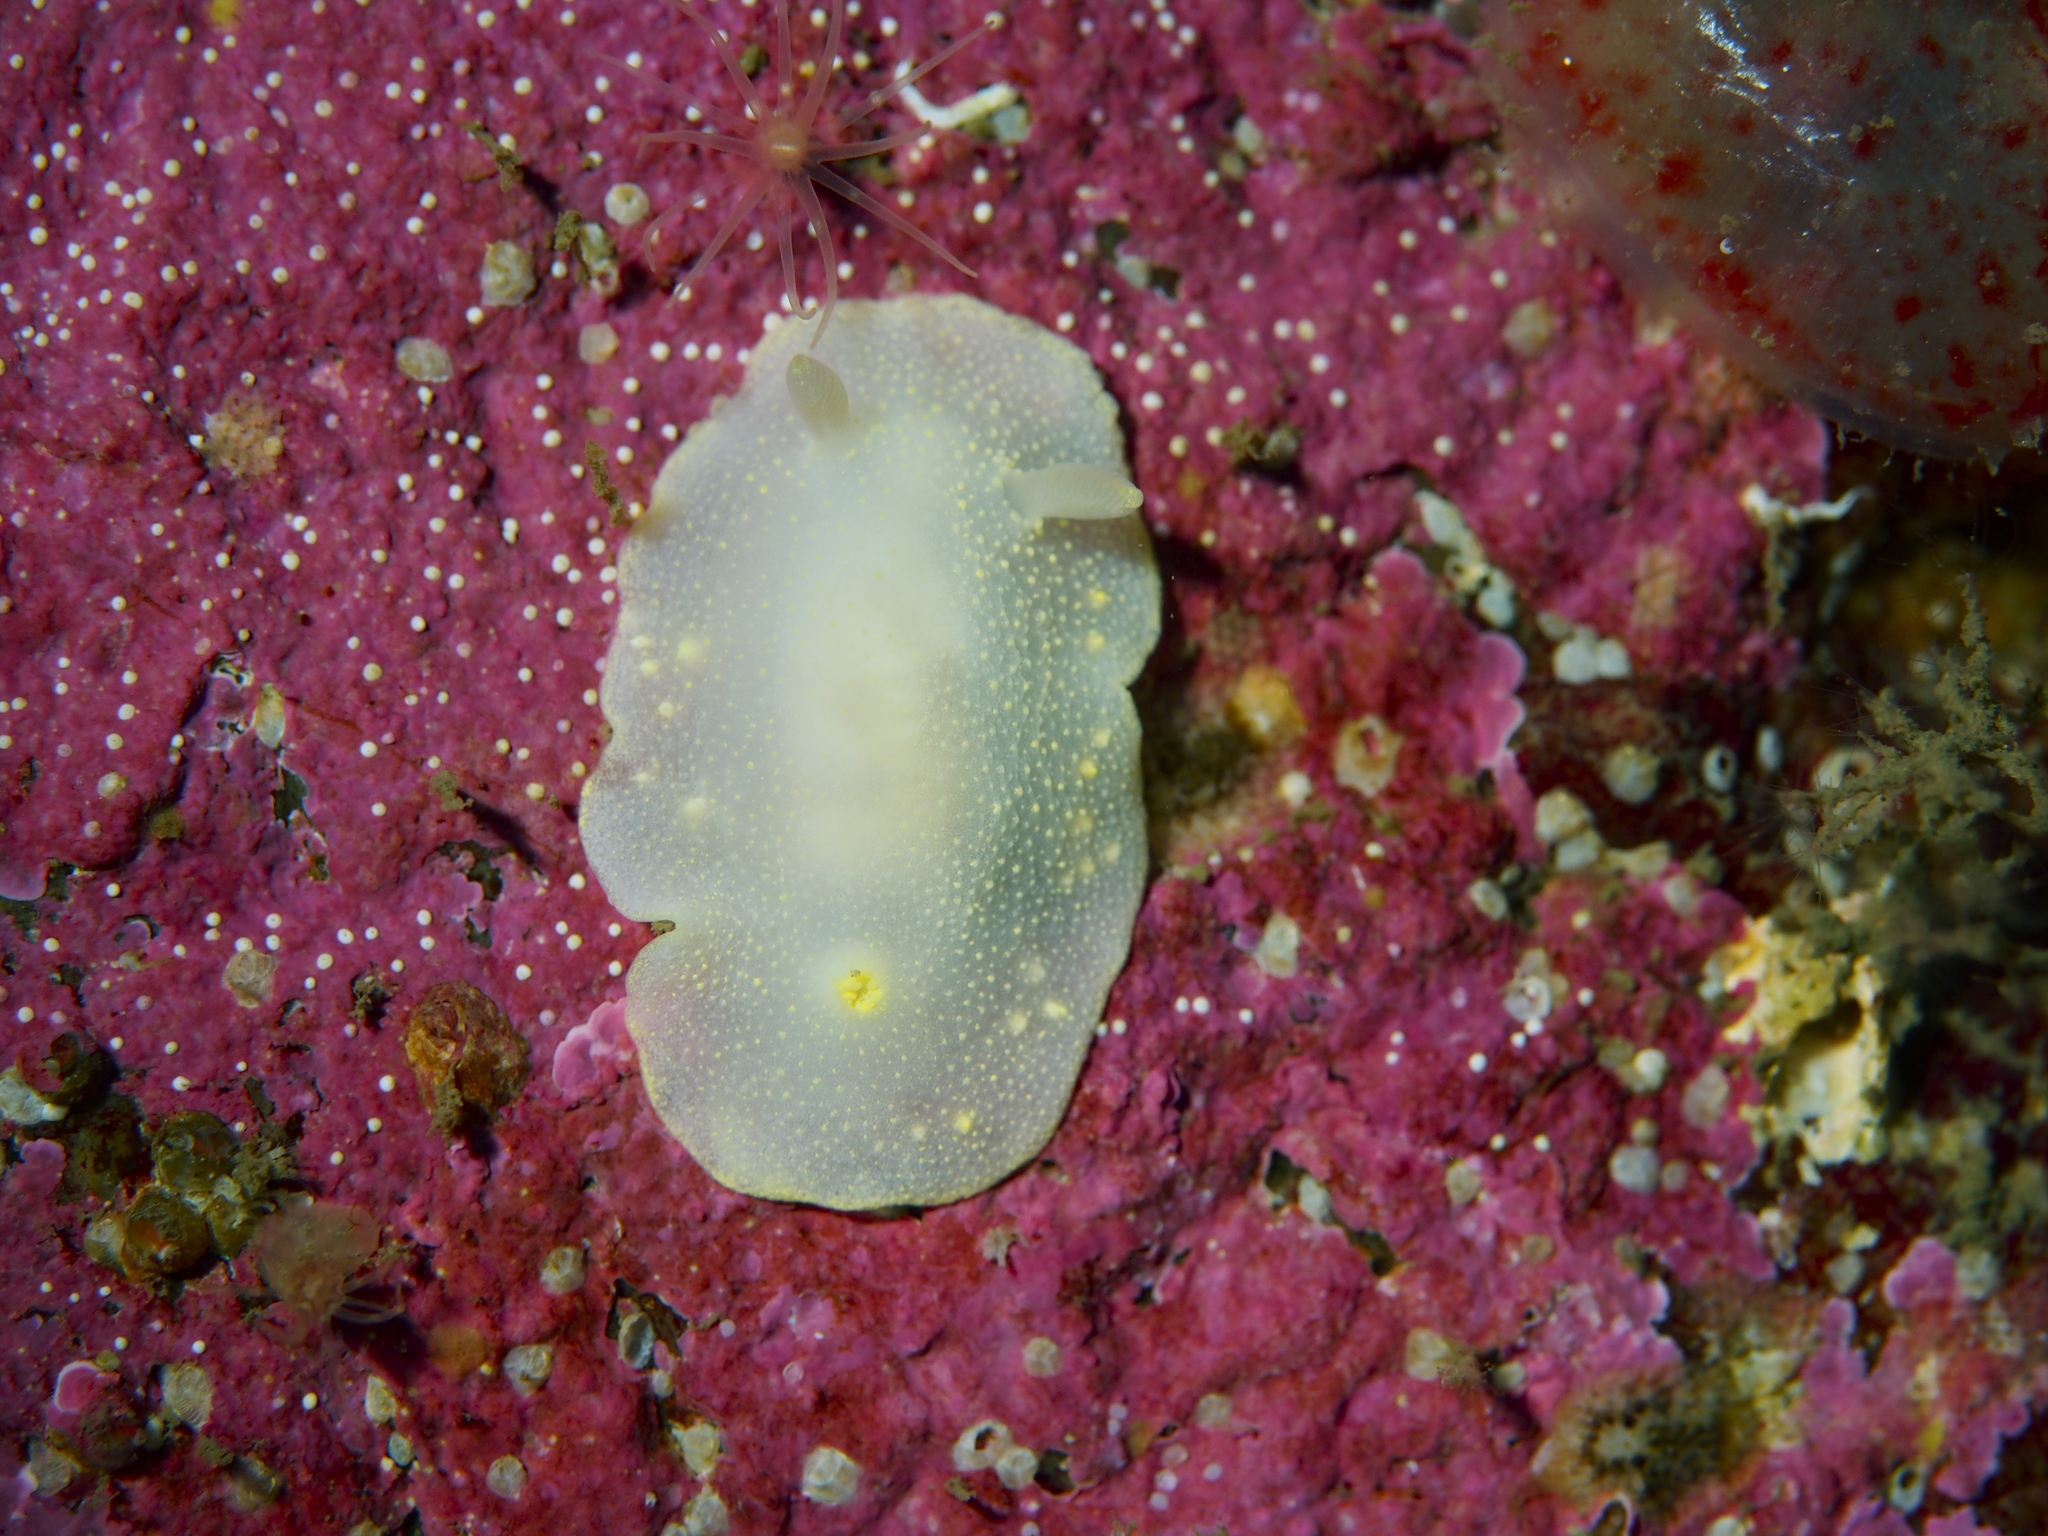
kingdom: Animalia
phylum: Mollusca
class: Gastropoda
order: Nudibranchia
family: Cadlinidae
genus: Cadlina
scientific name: Cadlina laevis
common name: White atlantic cadlina
